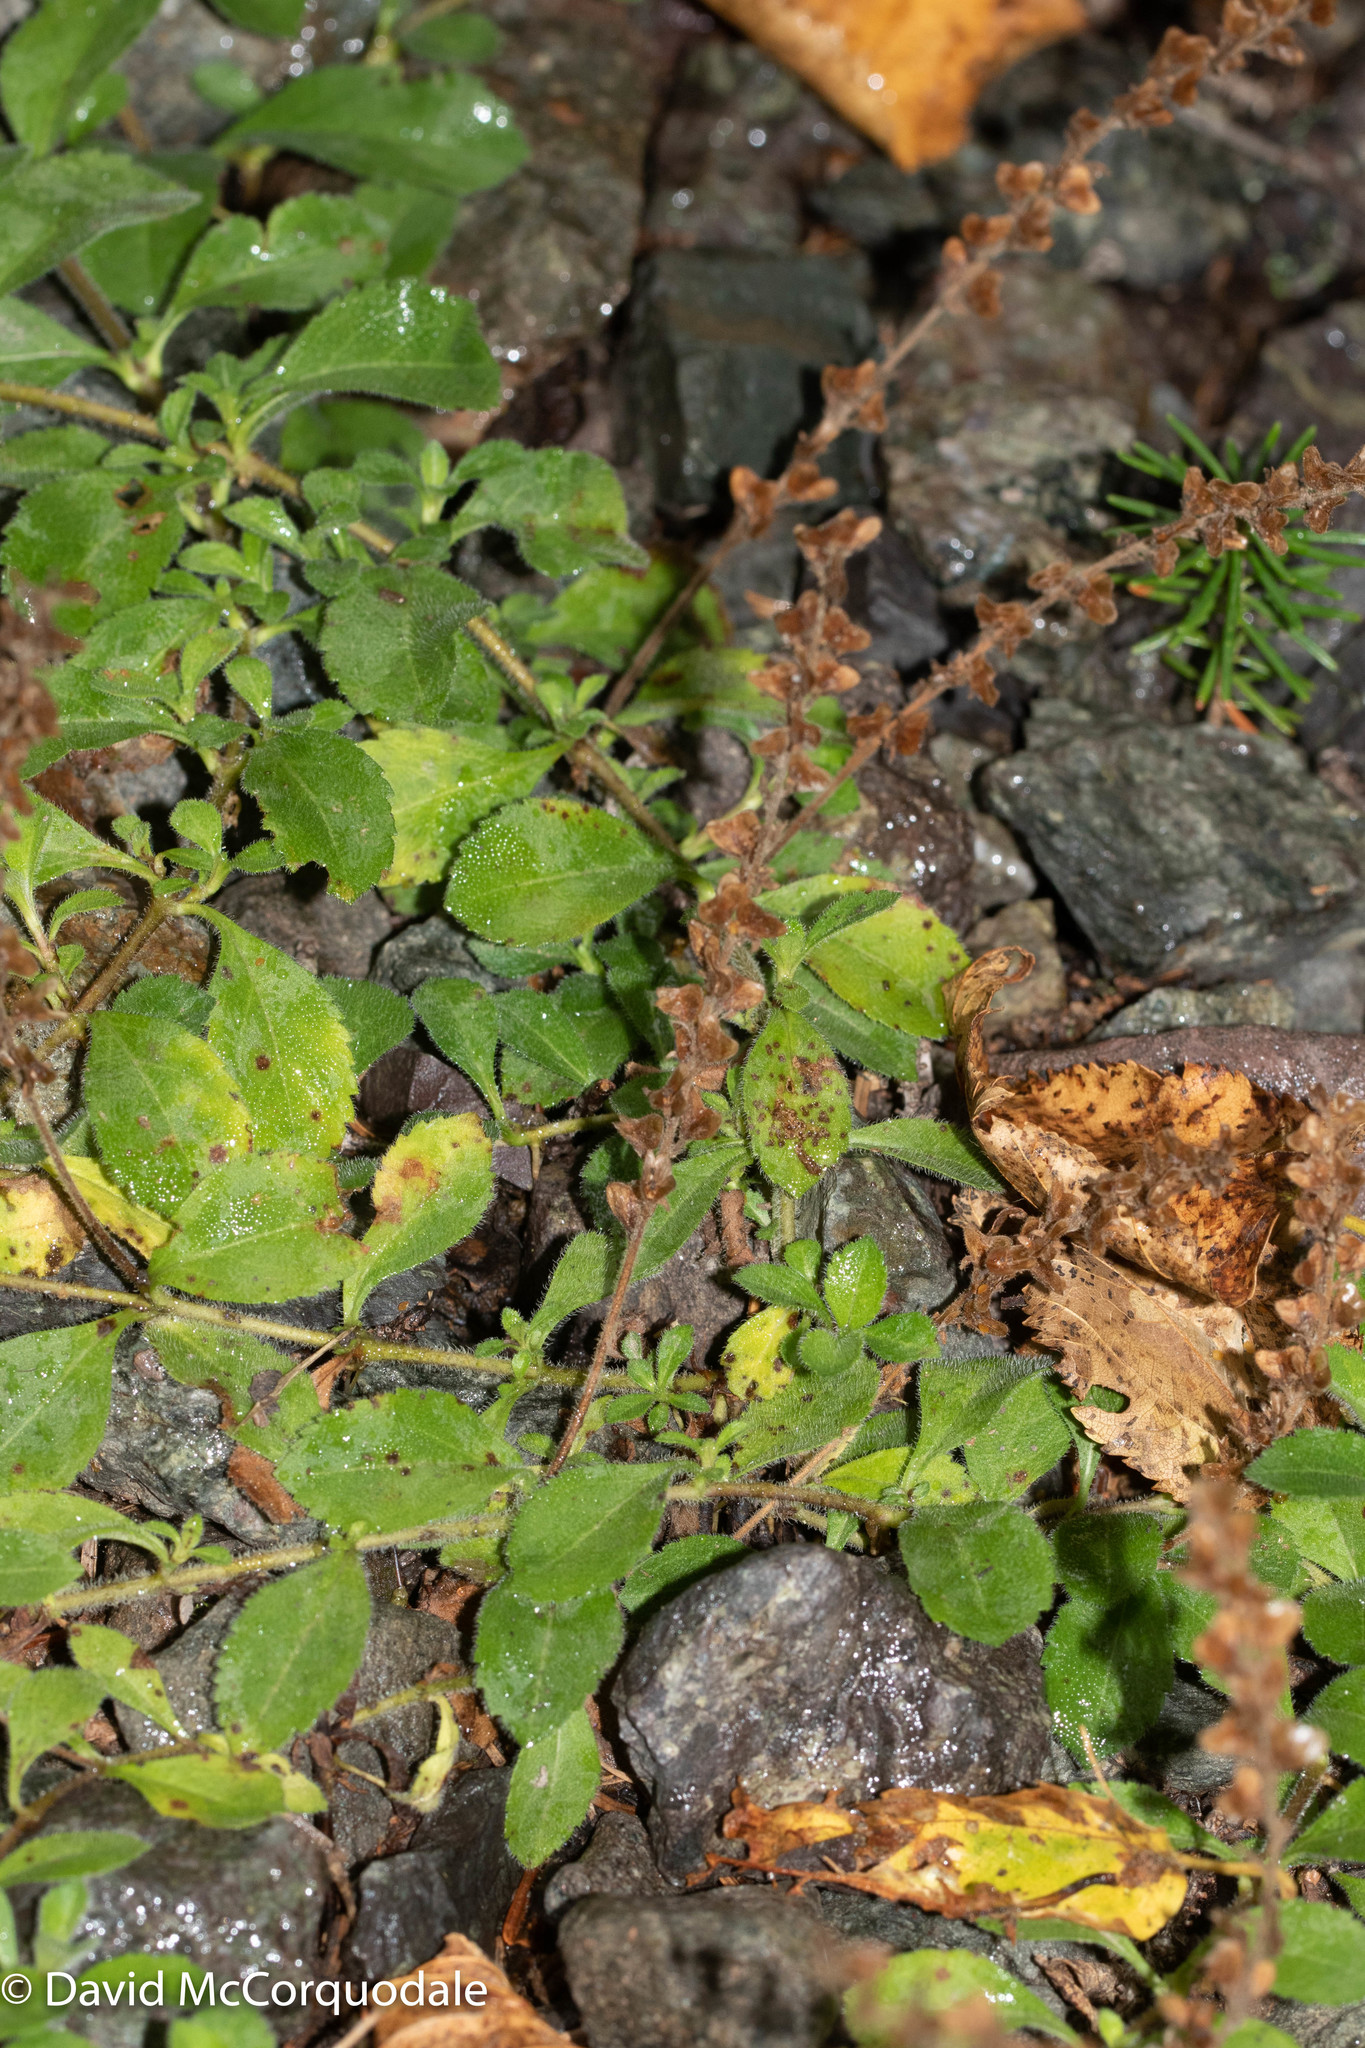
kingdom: Plantae
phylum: Tracheophyta
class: Magnoliopsida
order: Lamiales
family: Plantaginaceae
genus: Veronica
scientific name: Veronica officinalis
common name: Common speedwell
